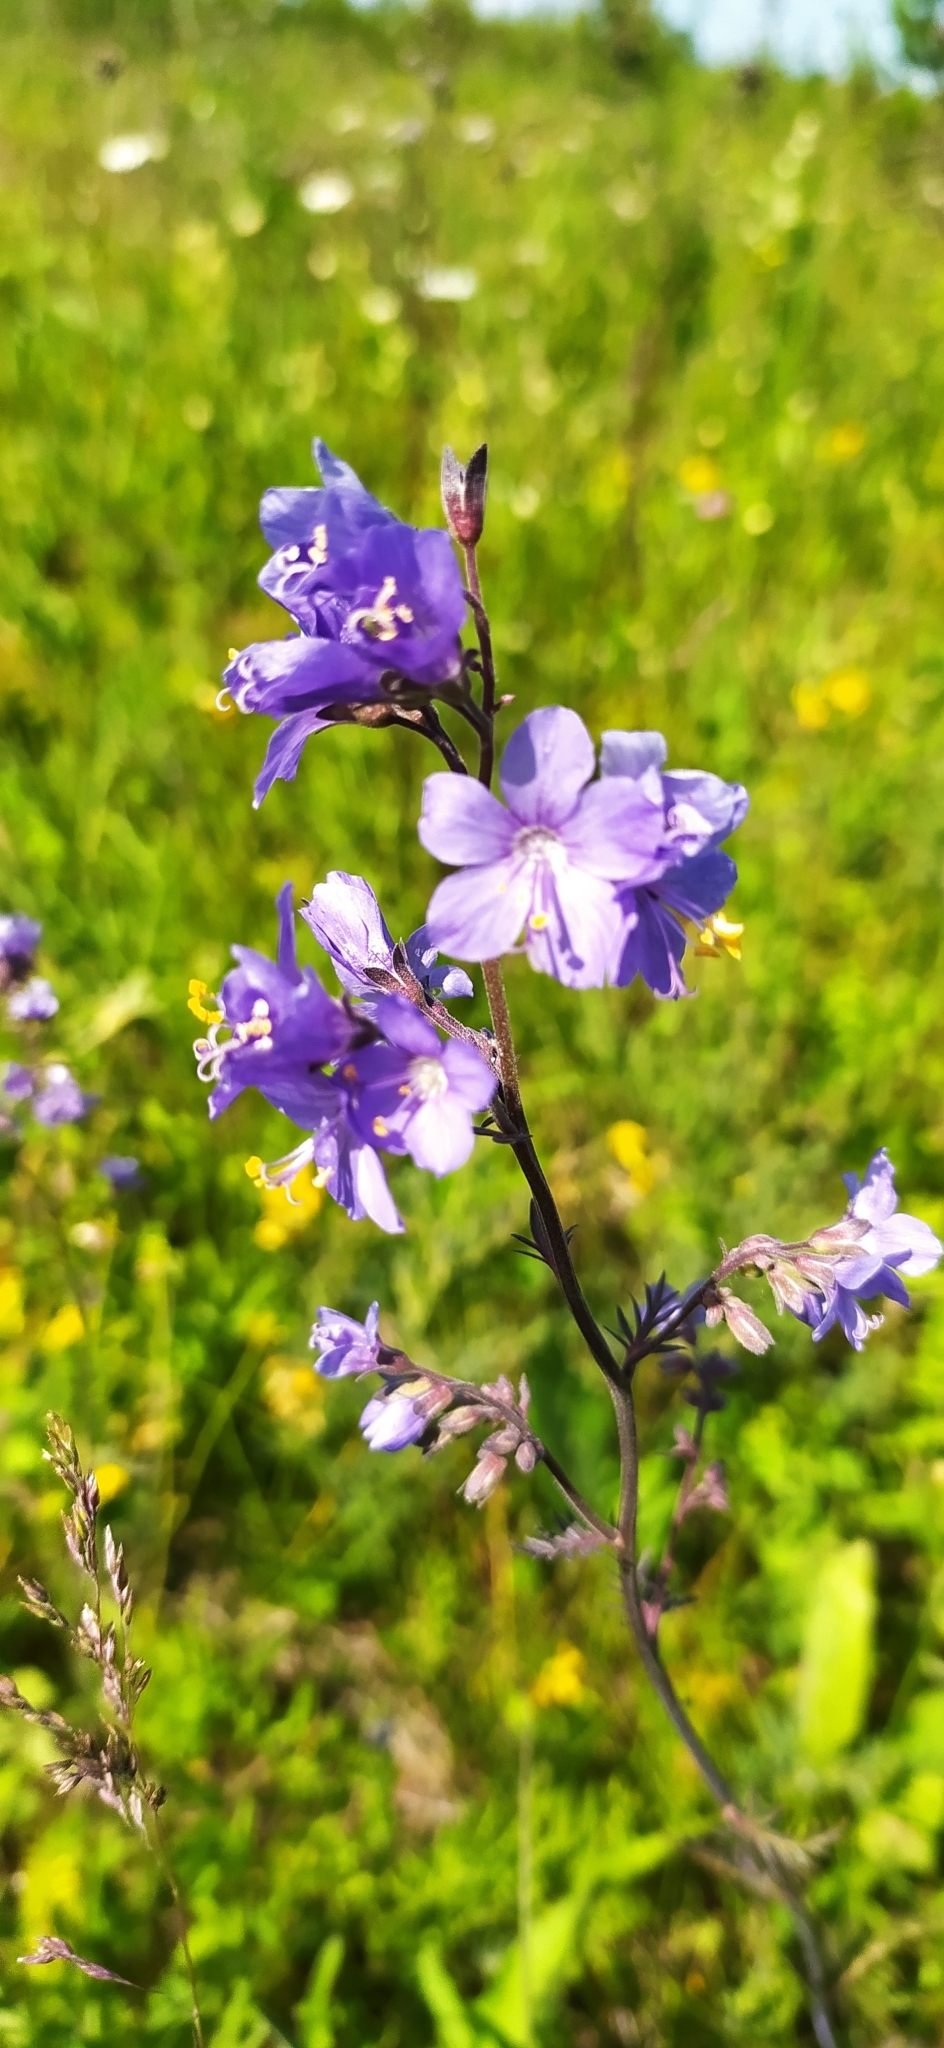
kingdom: Plantae
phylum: Tracheophyta
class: Magnoliopsida
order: Ericales
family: Polemoniaceae
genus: Polemonium
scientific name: Polemonium caeruleum
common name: Jacob's-ladder
